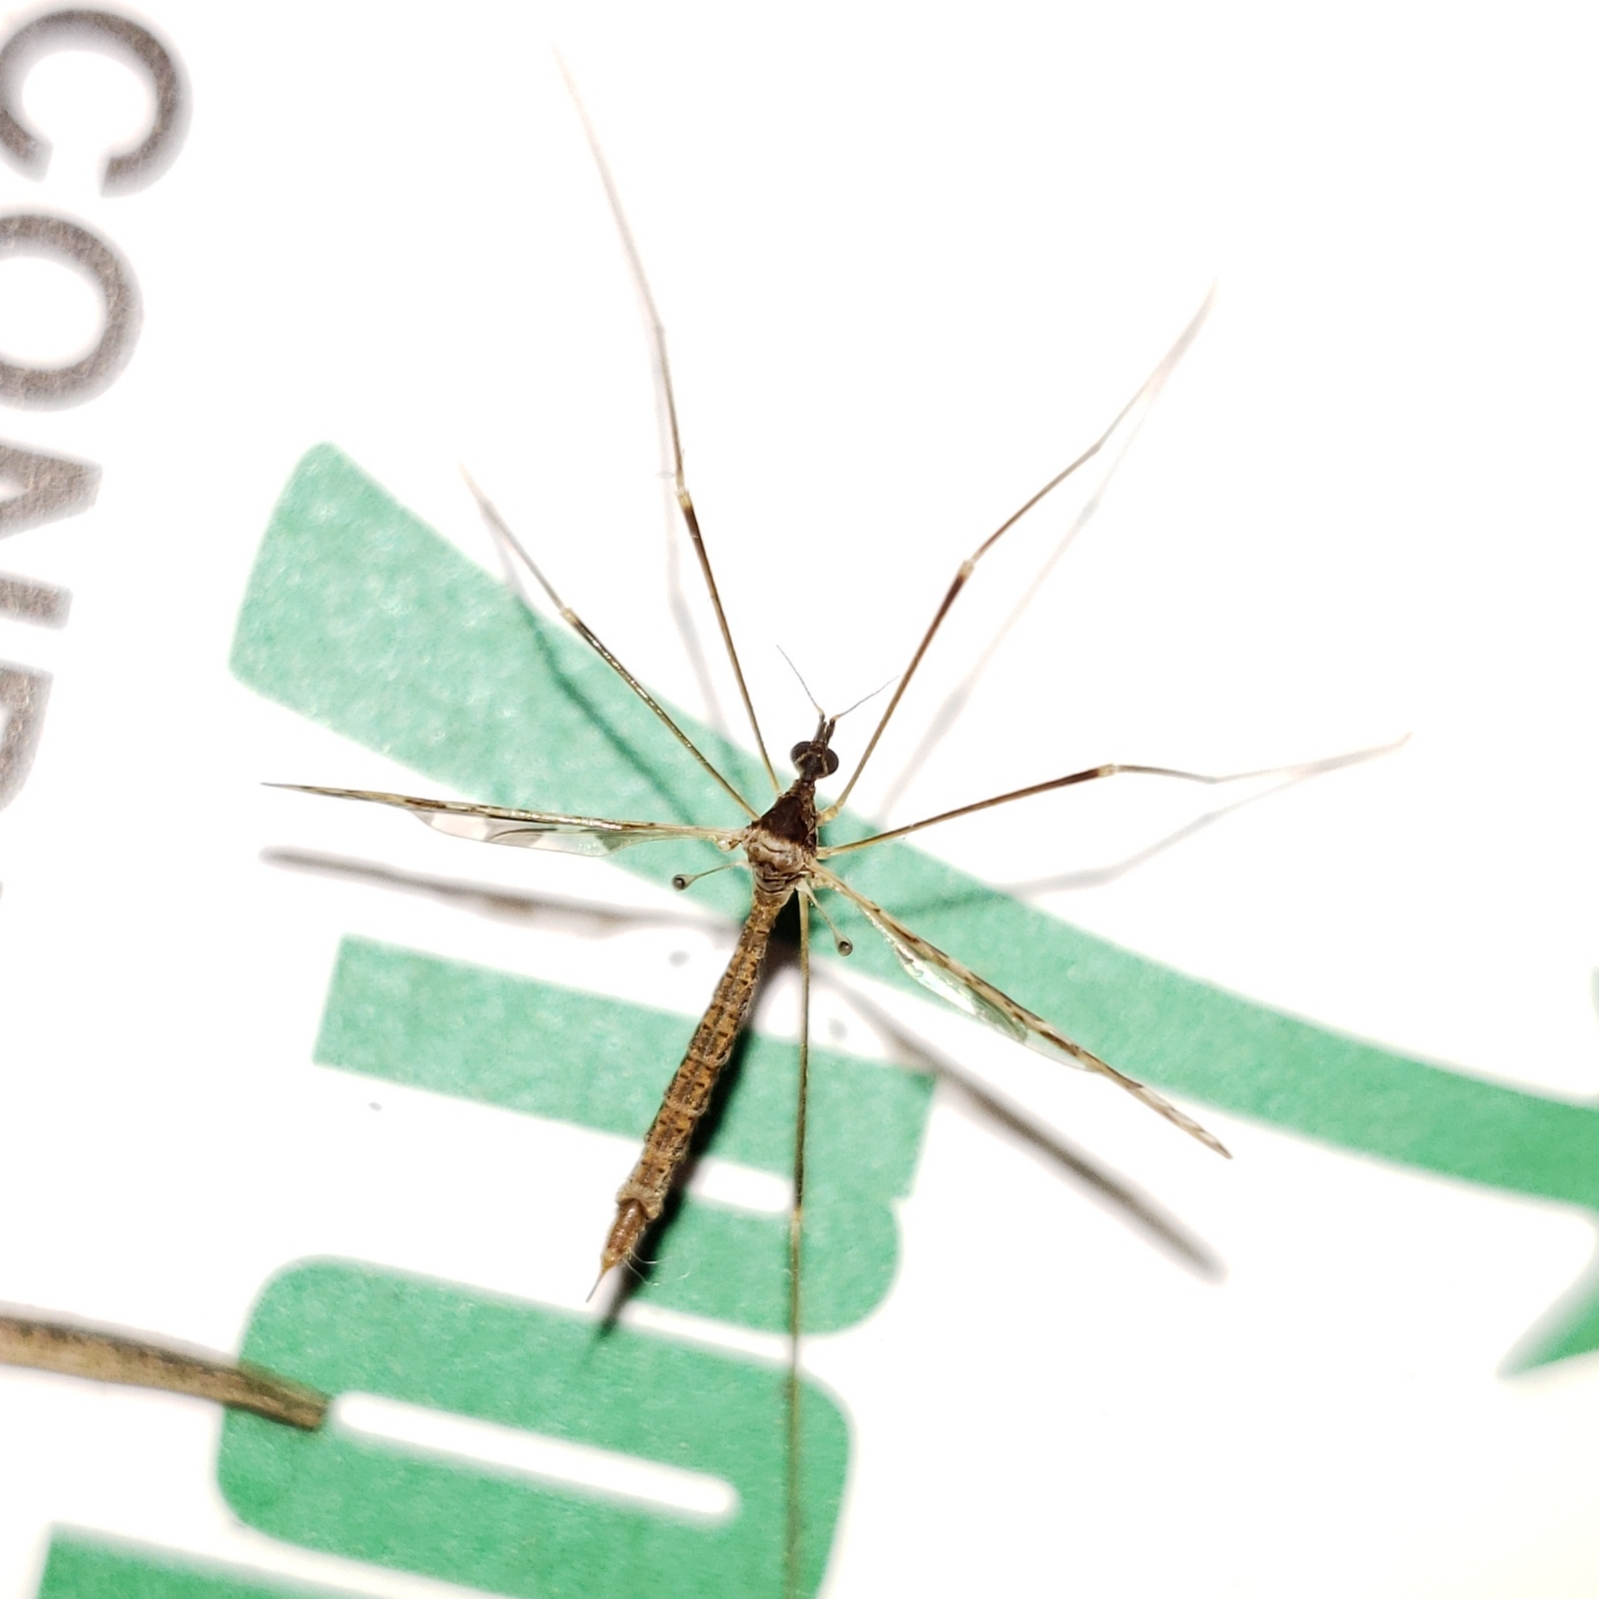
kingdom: Animalia
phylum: Arthropoda
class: Insecta
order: Diptera
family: Limoniidae
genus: Epiphragma
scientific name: Epiphragma solatrix
